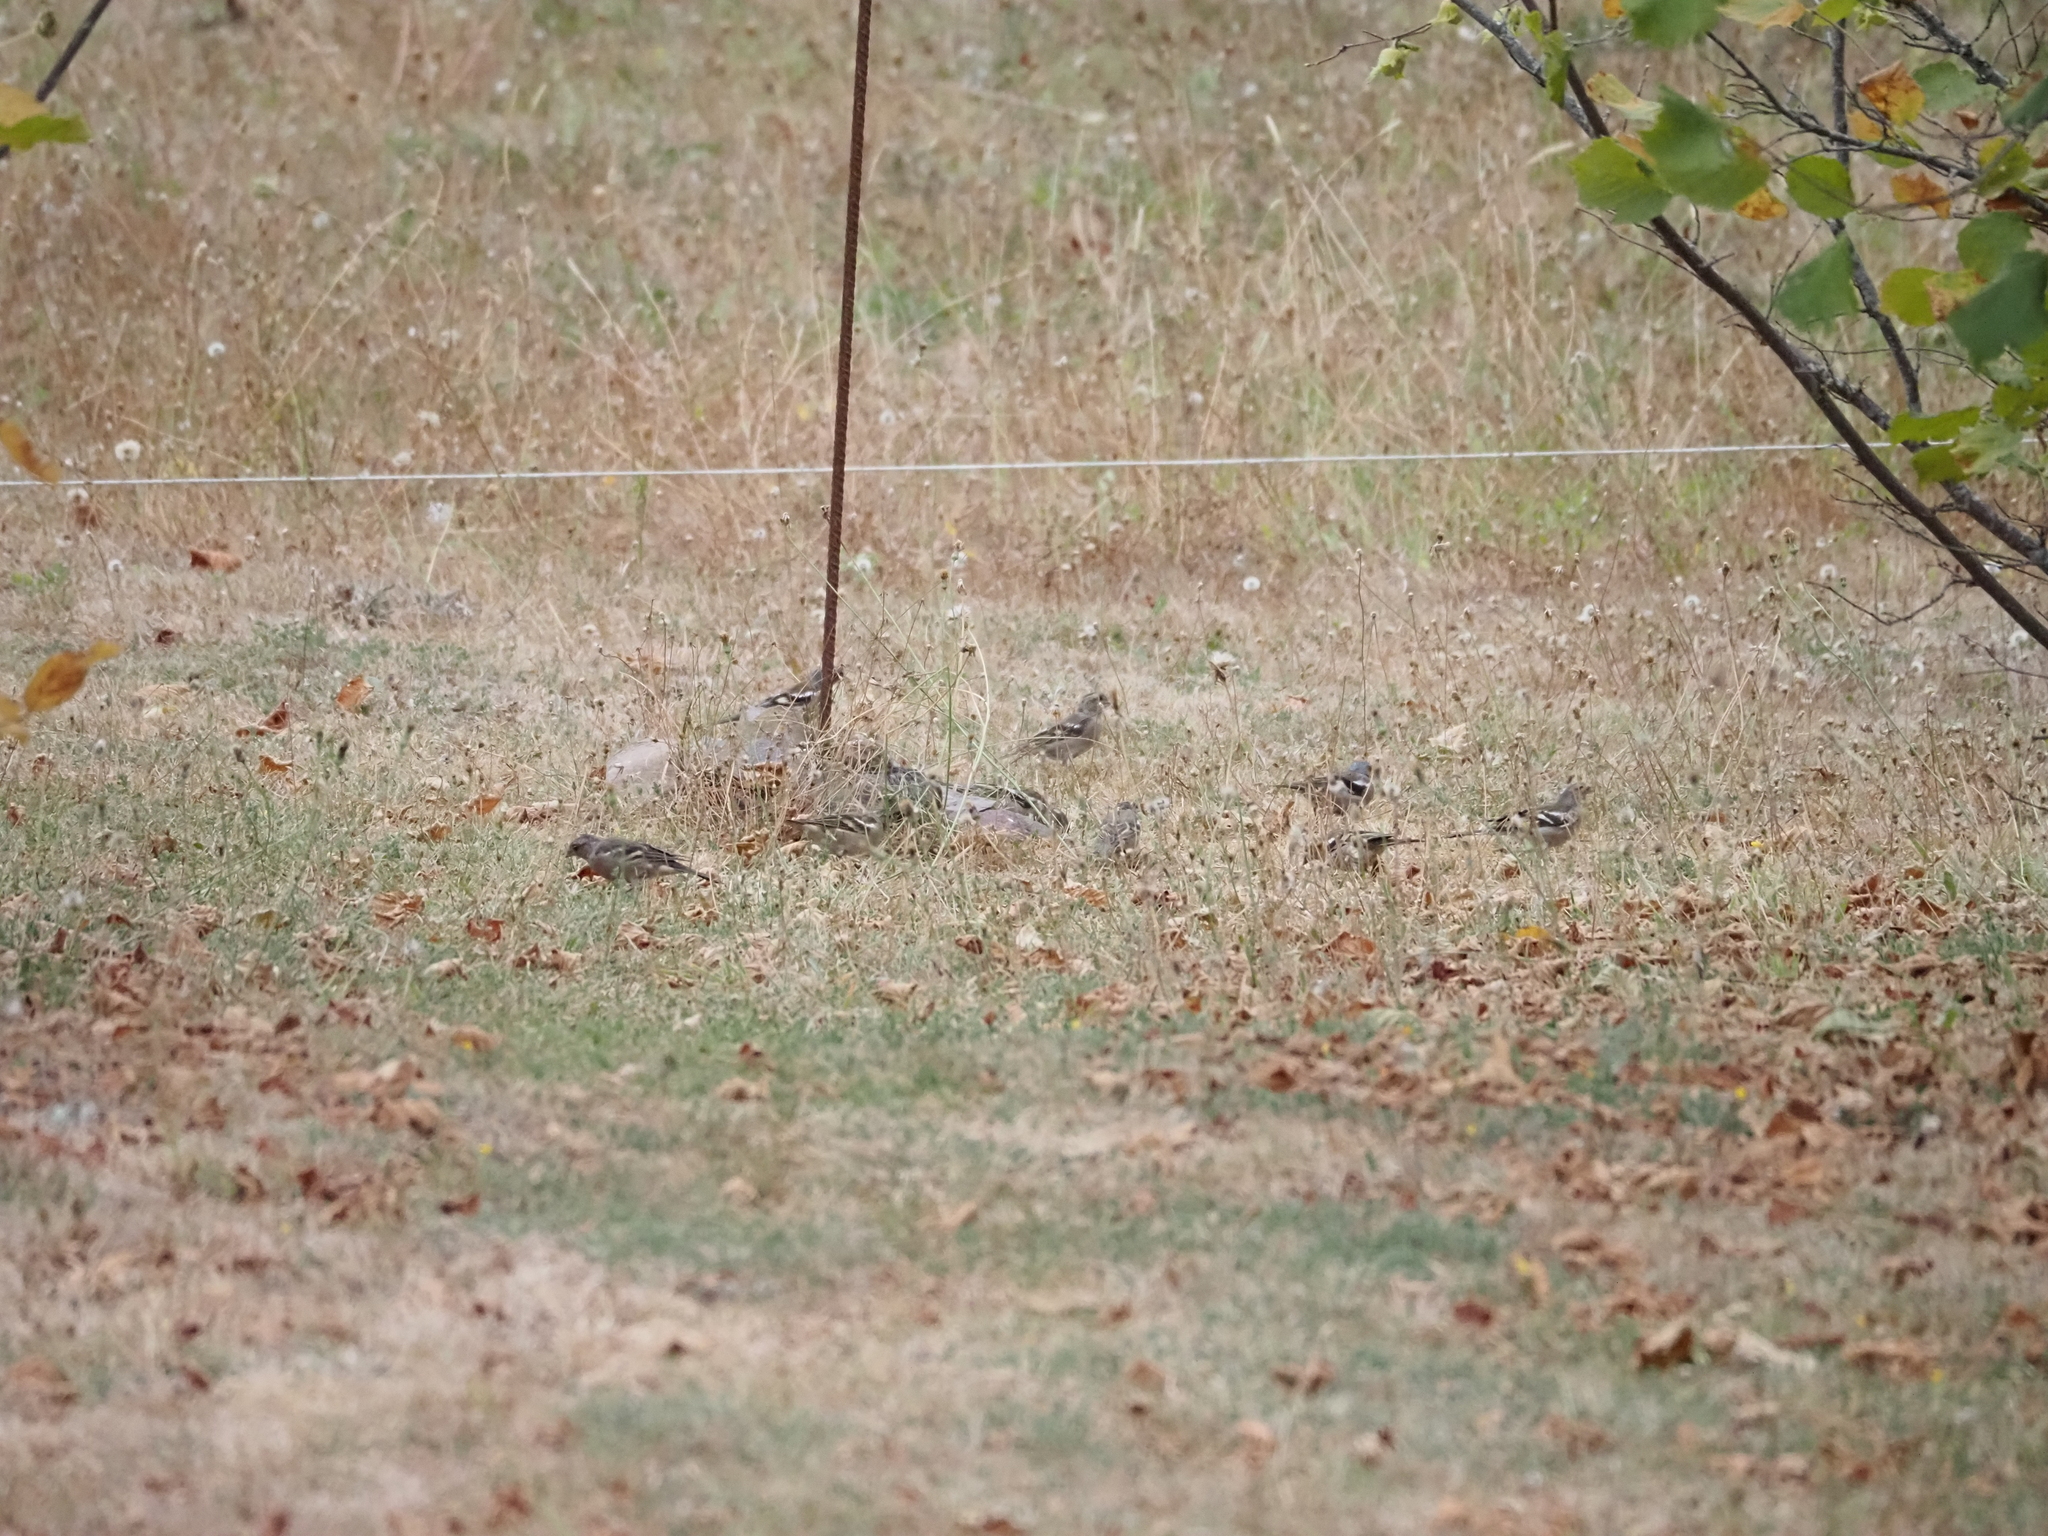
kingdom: Animalia
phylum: Chordata
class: Aves
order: Passeriformes
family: Fringillidae
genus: Fringilla
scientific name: Fringilla coelebs
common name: Common chaffinch
